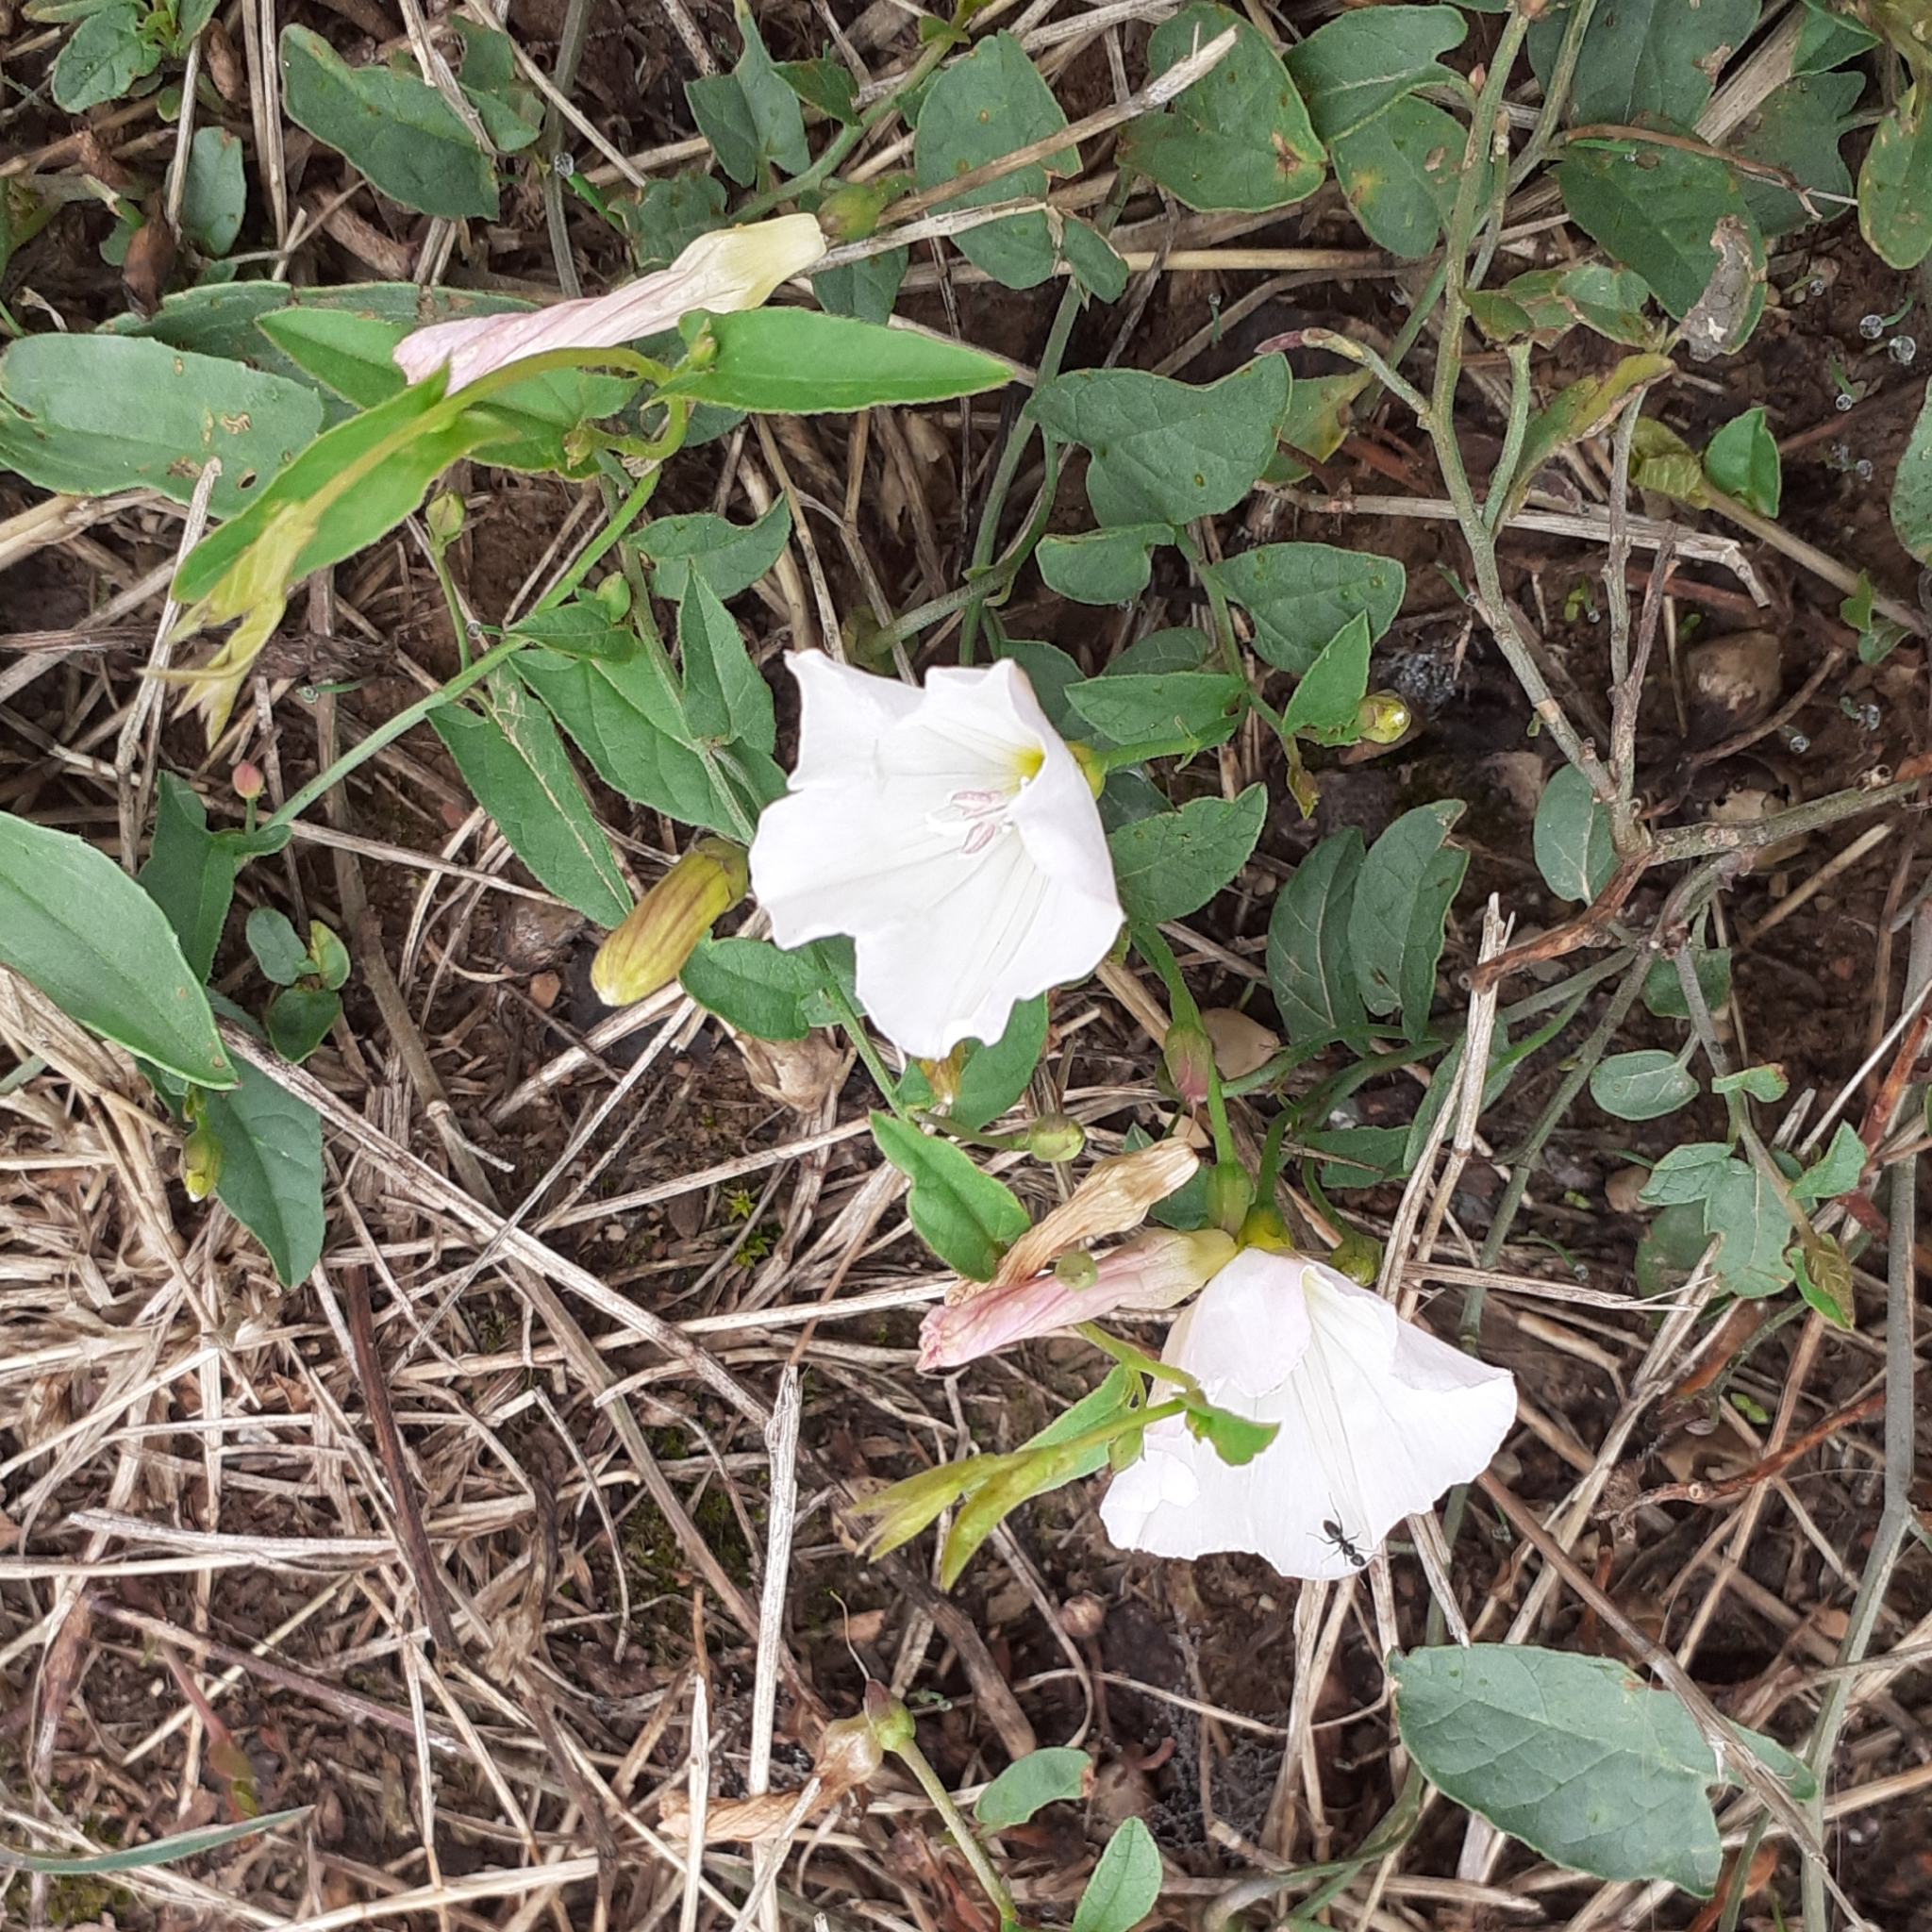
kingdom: Plantae
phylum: Tracheophyta
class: Magnoliopsida
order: Solanales
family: Convolvulaceae
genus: Convolvulus
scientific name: Convolvulus arvensis
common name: Field bindweed
